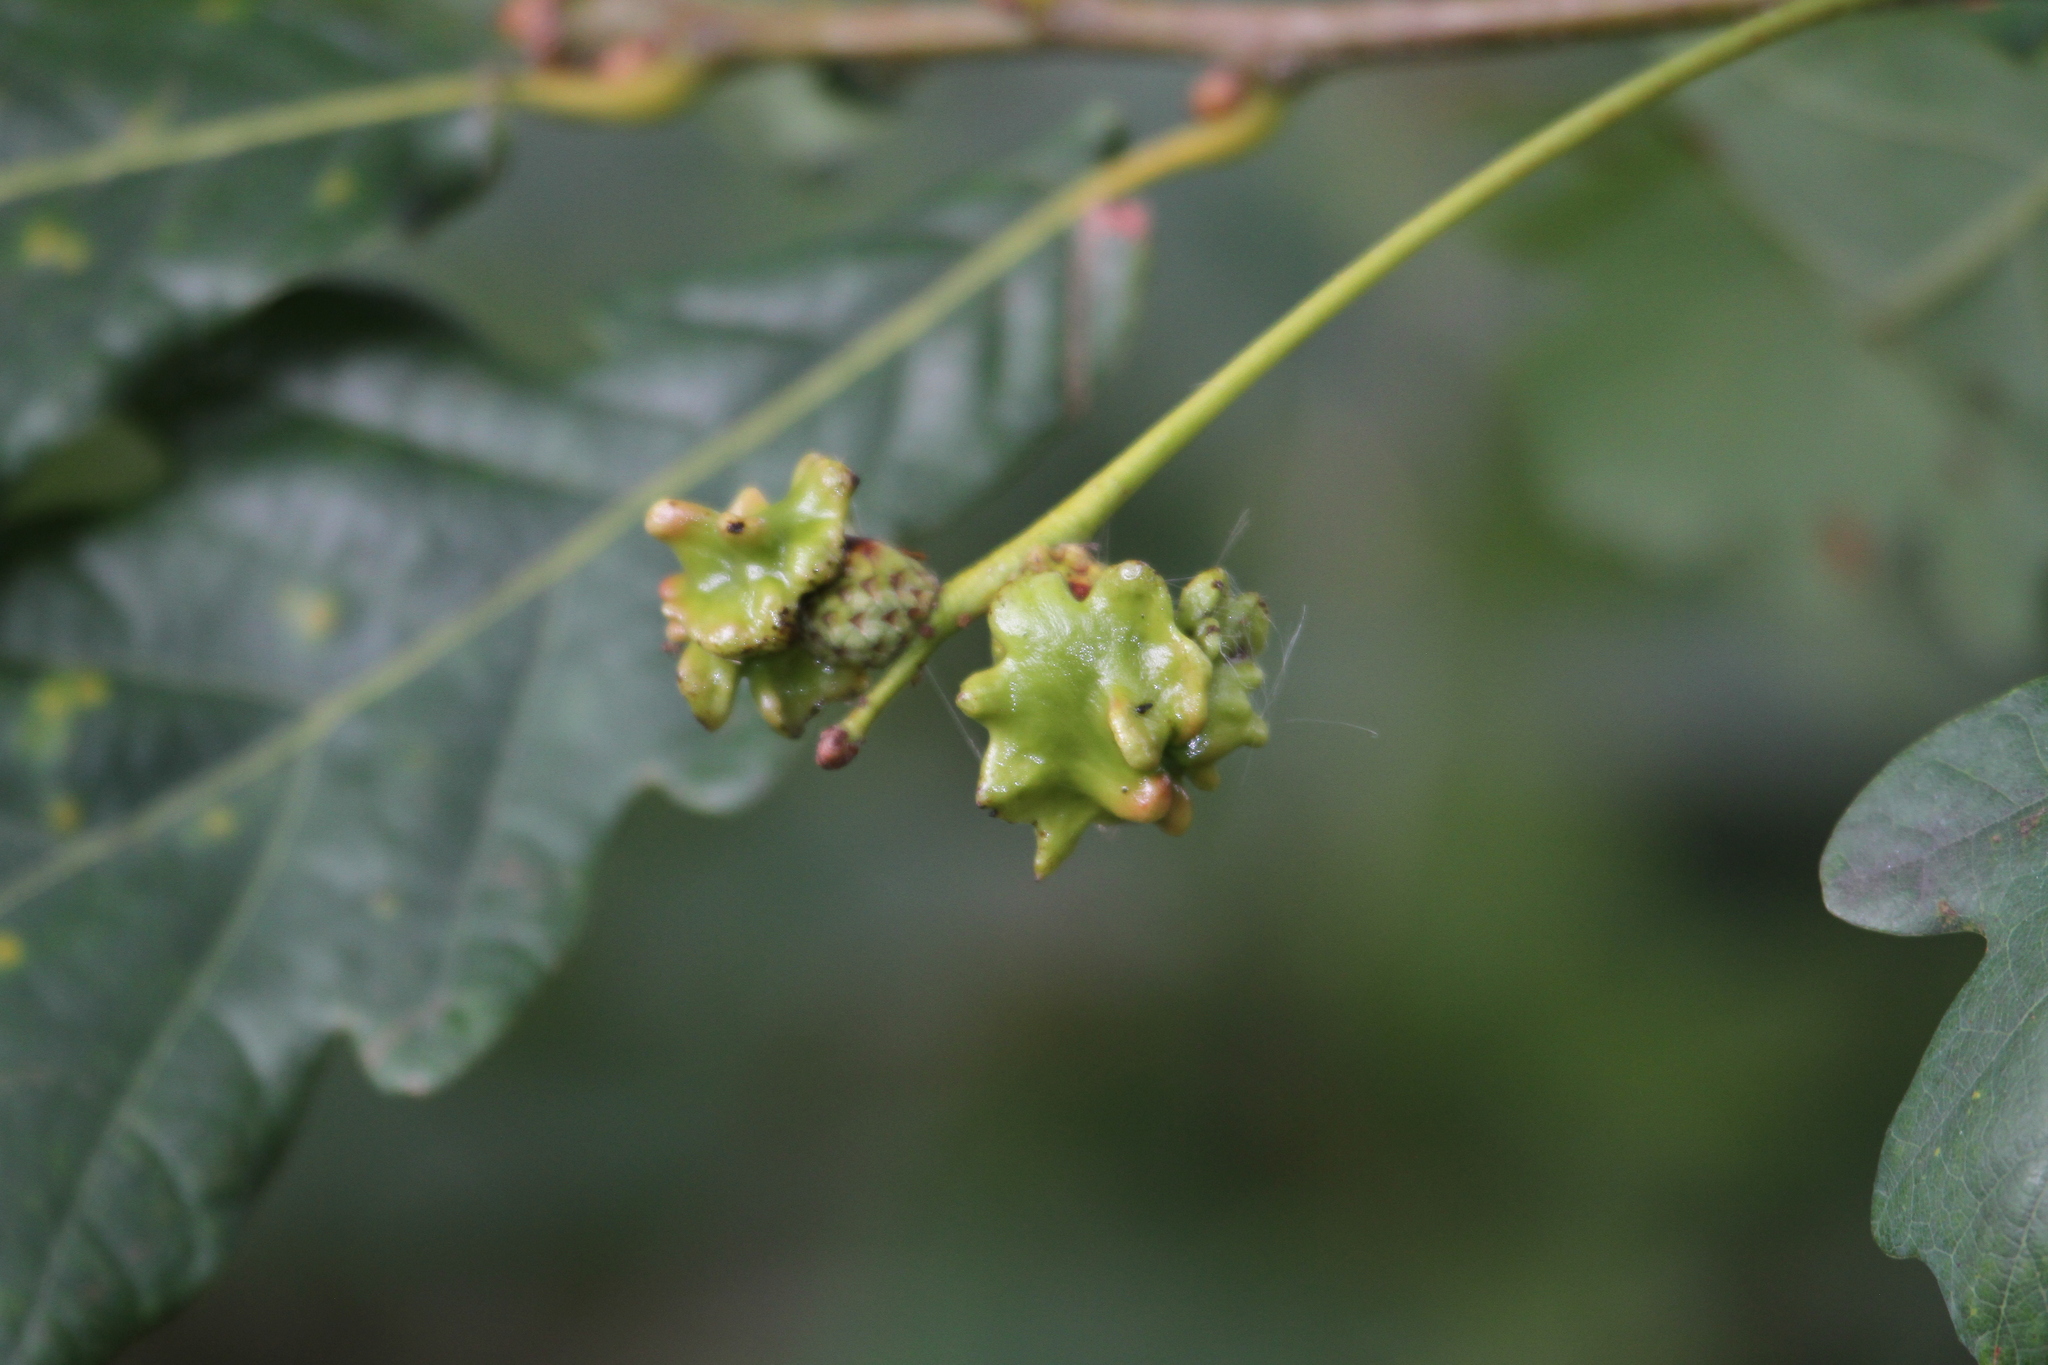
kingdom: Animalia
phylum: Arthropoda
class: Insecta
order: Hymenoptera
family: Cynipidae
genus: Andricus
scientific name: Andricus quercuscalicis
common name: Knopper gall
